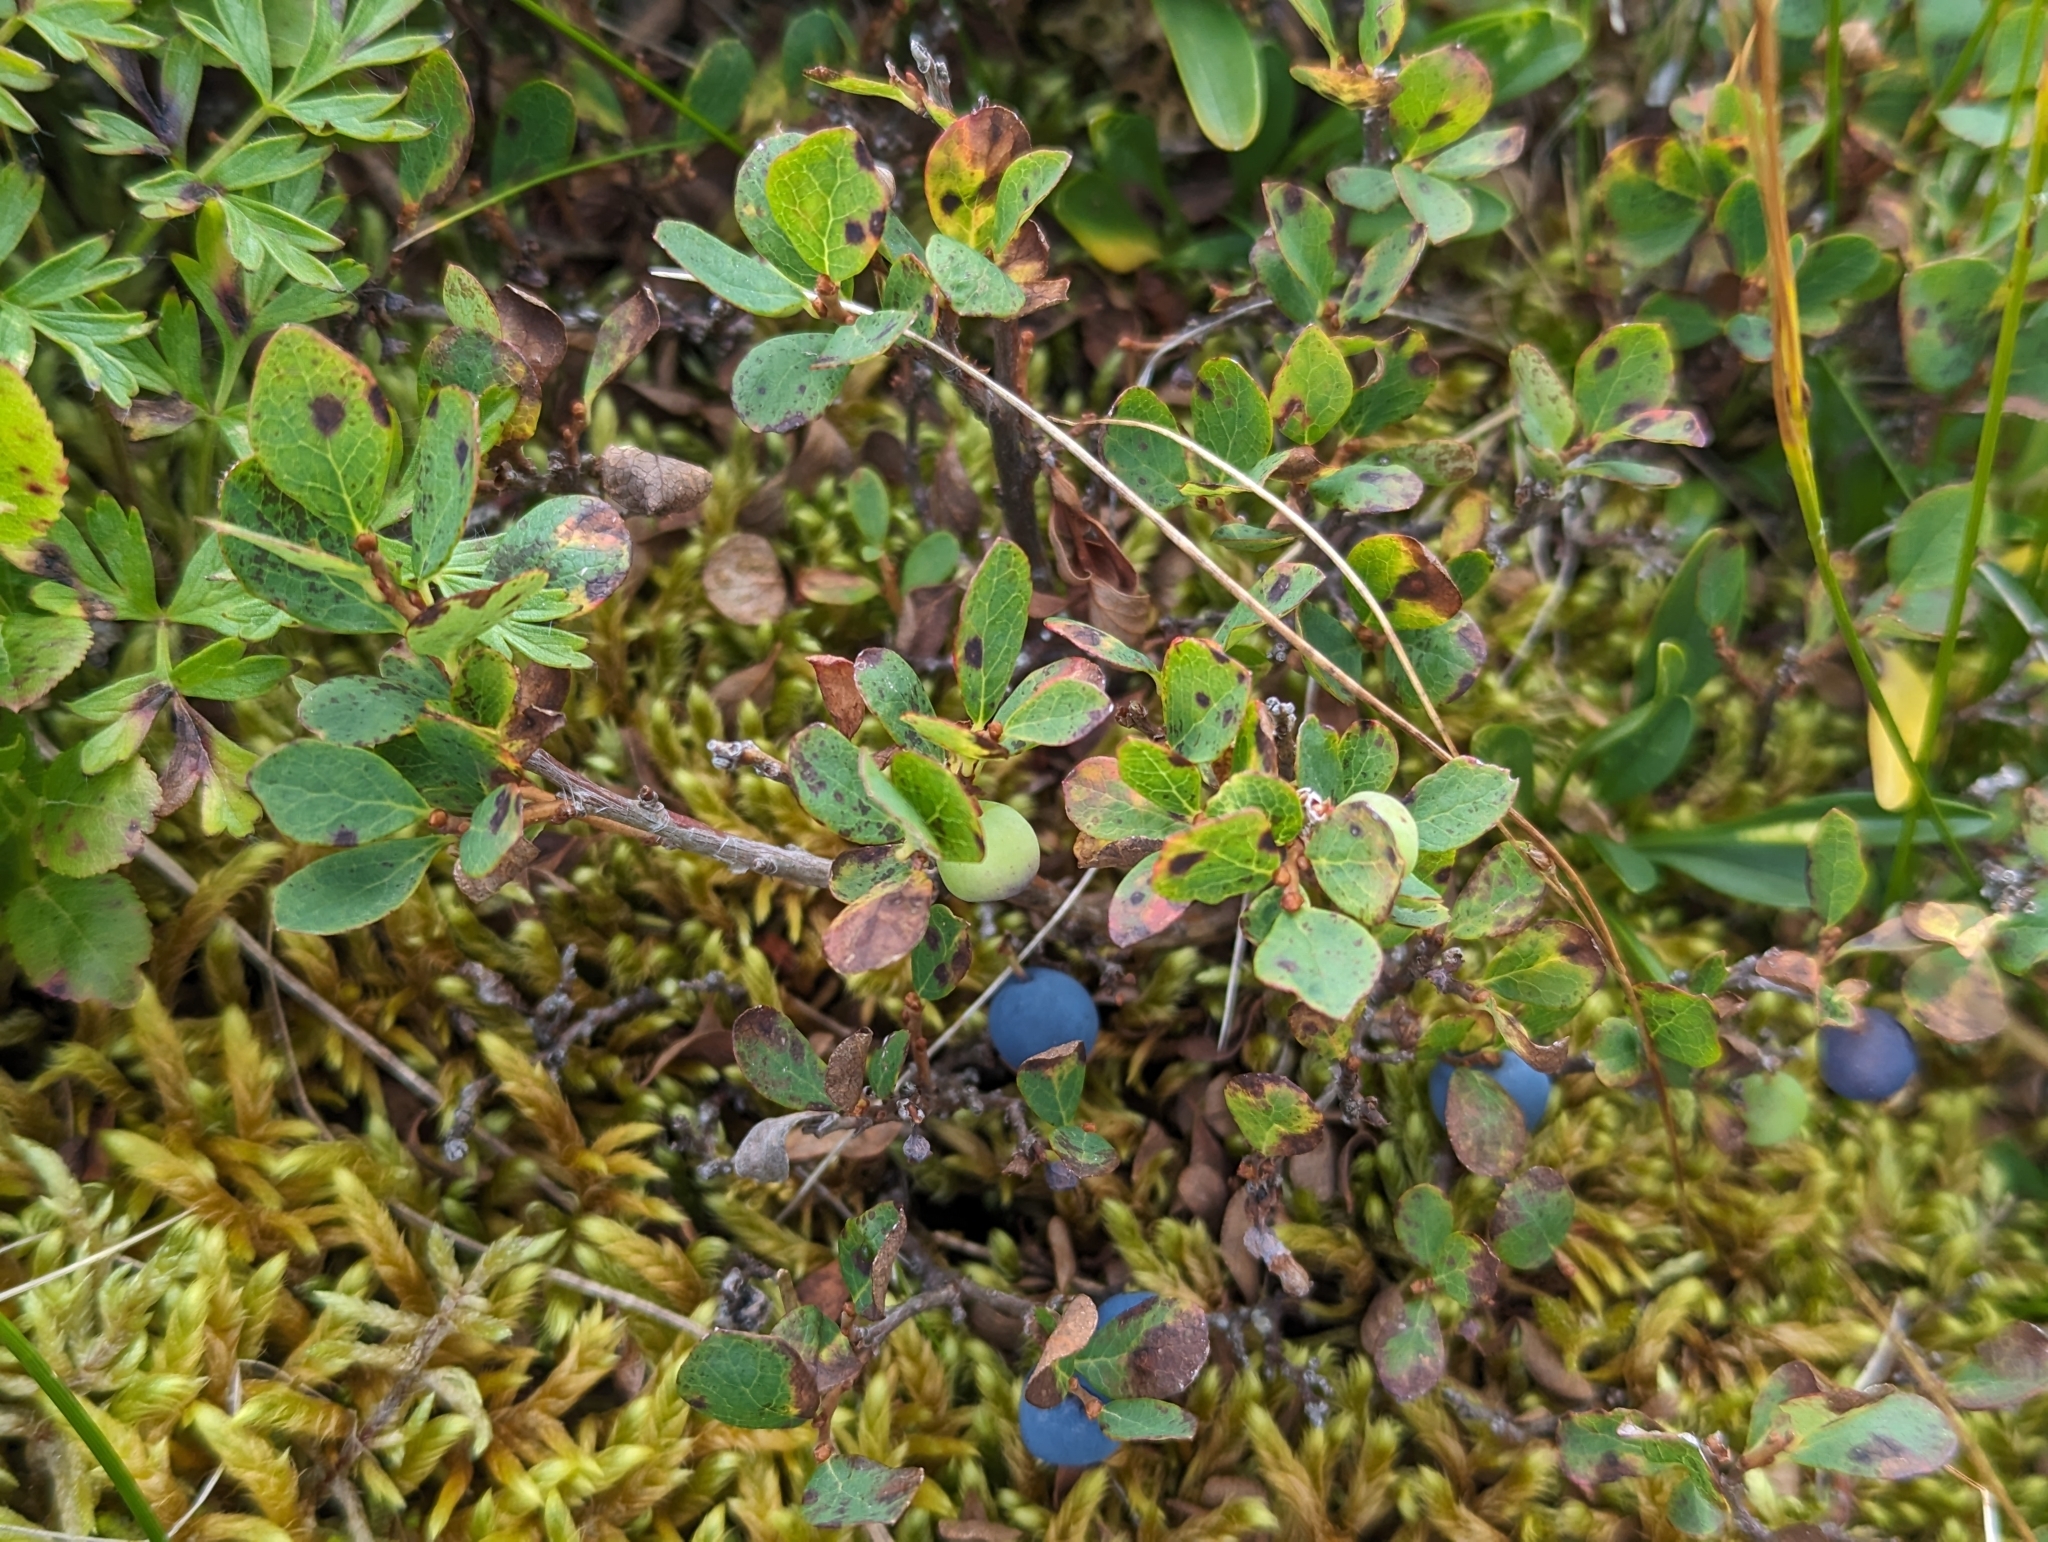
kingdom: Plantae
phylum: Tracheophyta
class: Magnoliopsida
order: Ericales
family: Ericaceae
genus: Vaccinium
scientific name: Vaccinium uliginosum
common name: Bog bilberry
